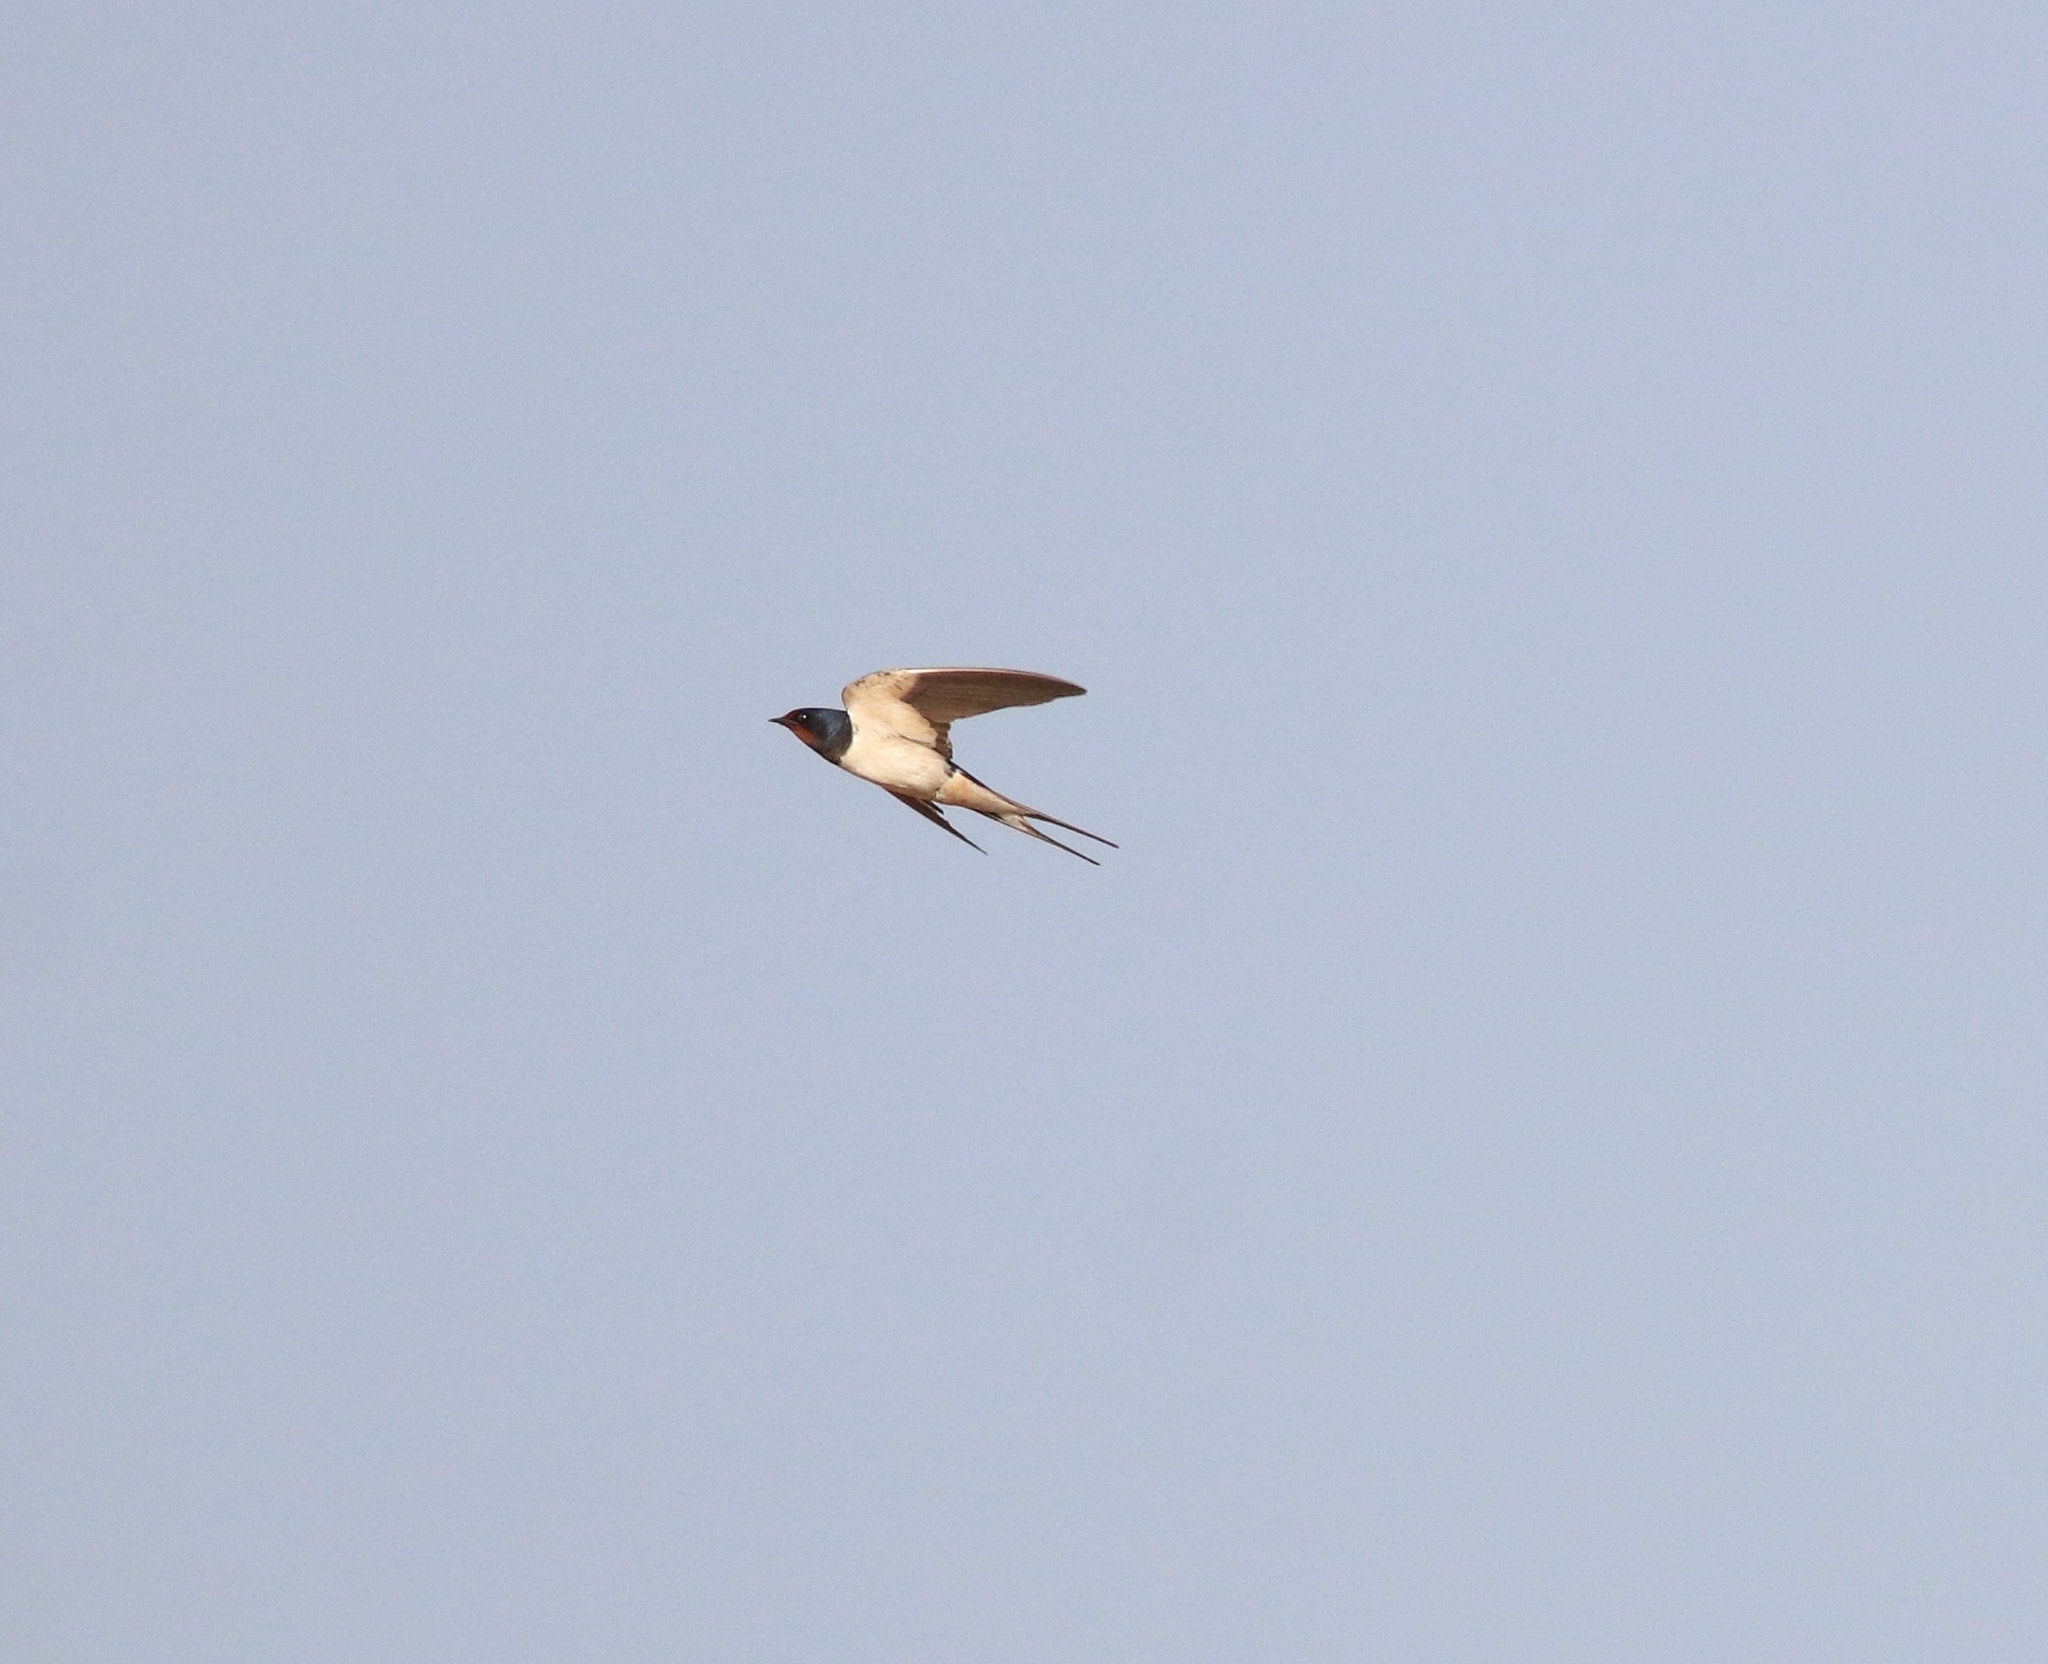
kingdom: Animalia
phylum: Chordata
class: Aves
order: Passeriformes
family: Hirundinidae
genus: Hirundo
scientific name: Hirundo rustica
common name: Barn swallow
